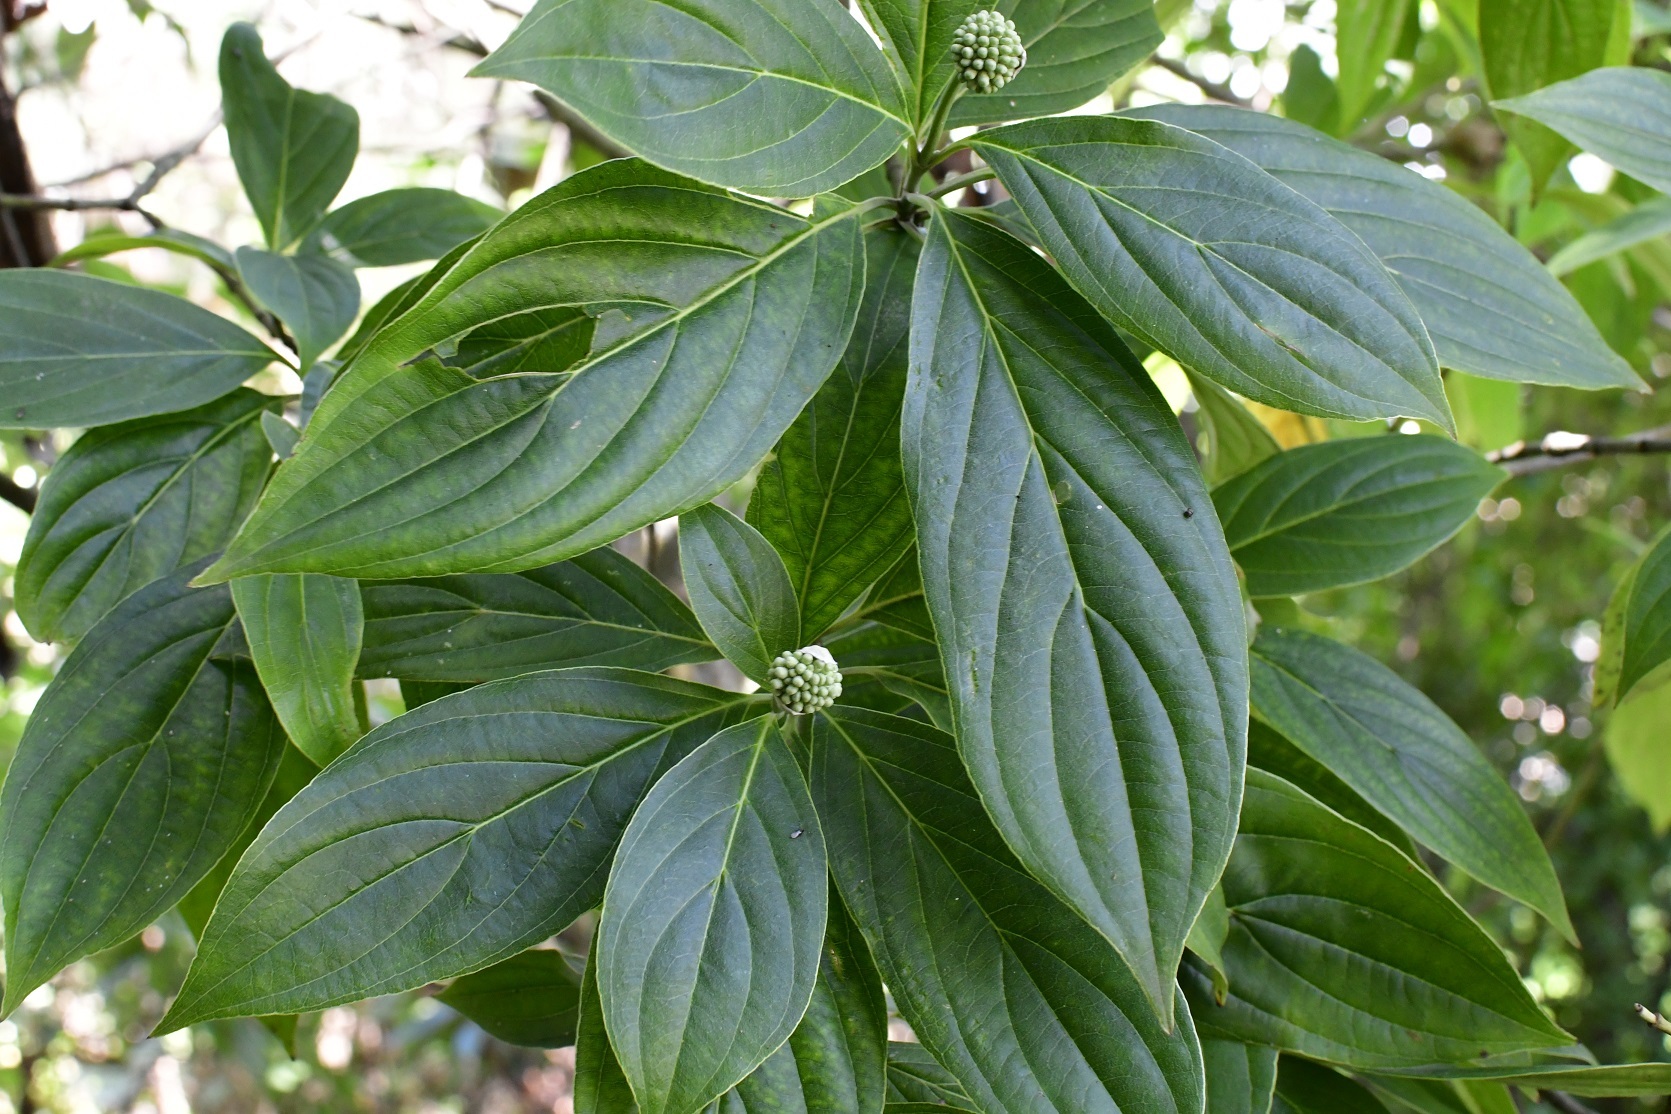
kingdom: Plantae
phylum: Tracheophyta
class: Magnoliopsida
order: Cornales
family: Cornaceae
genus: Cornus
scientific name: Cornus disciflora
